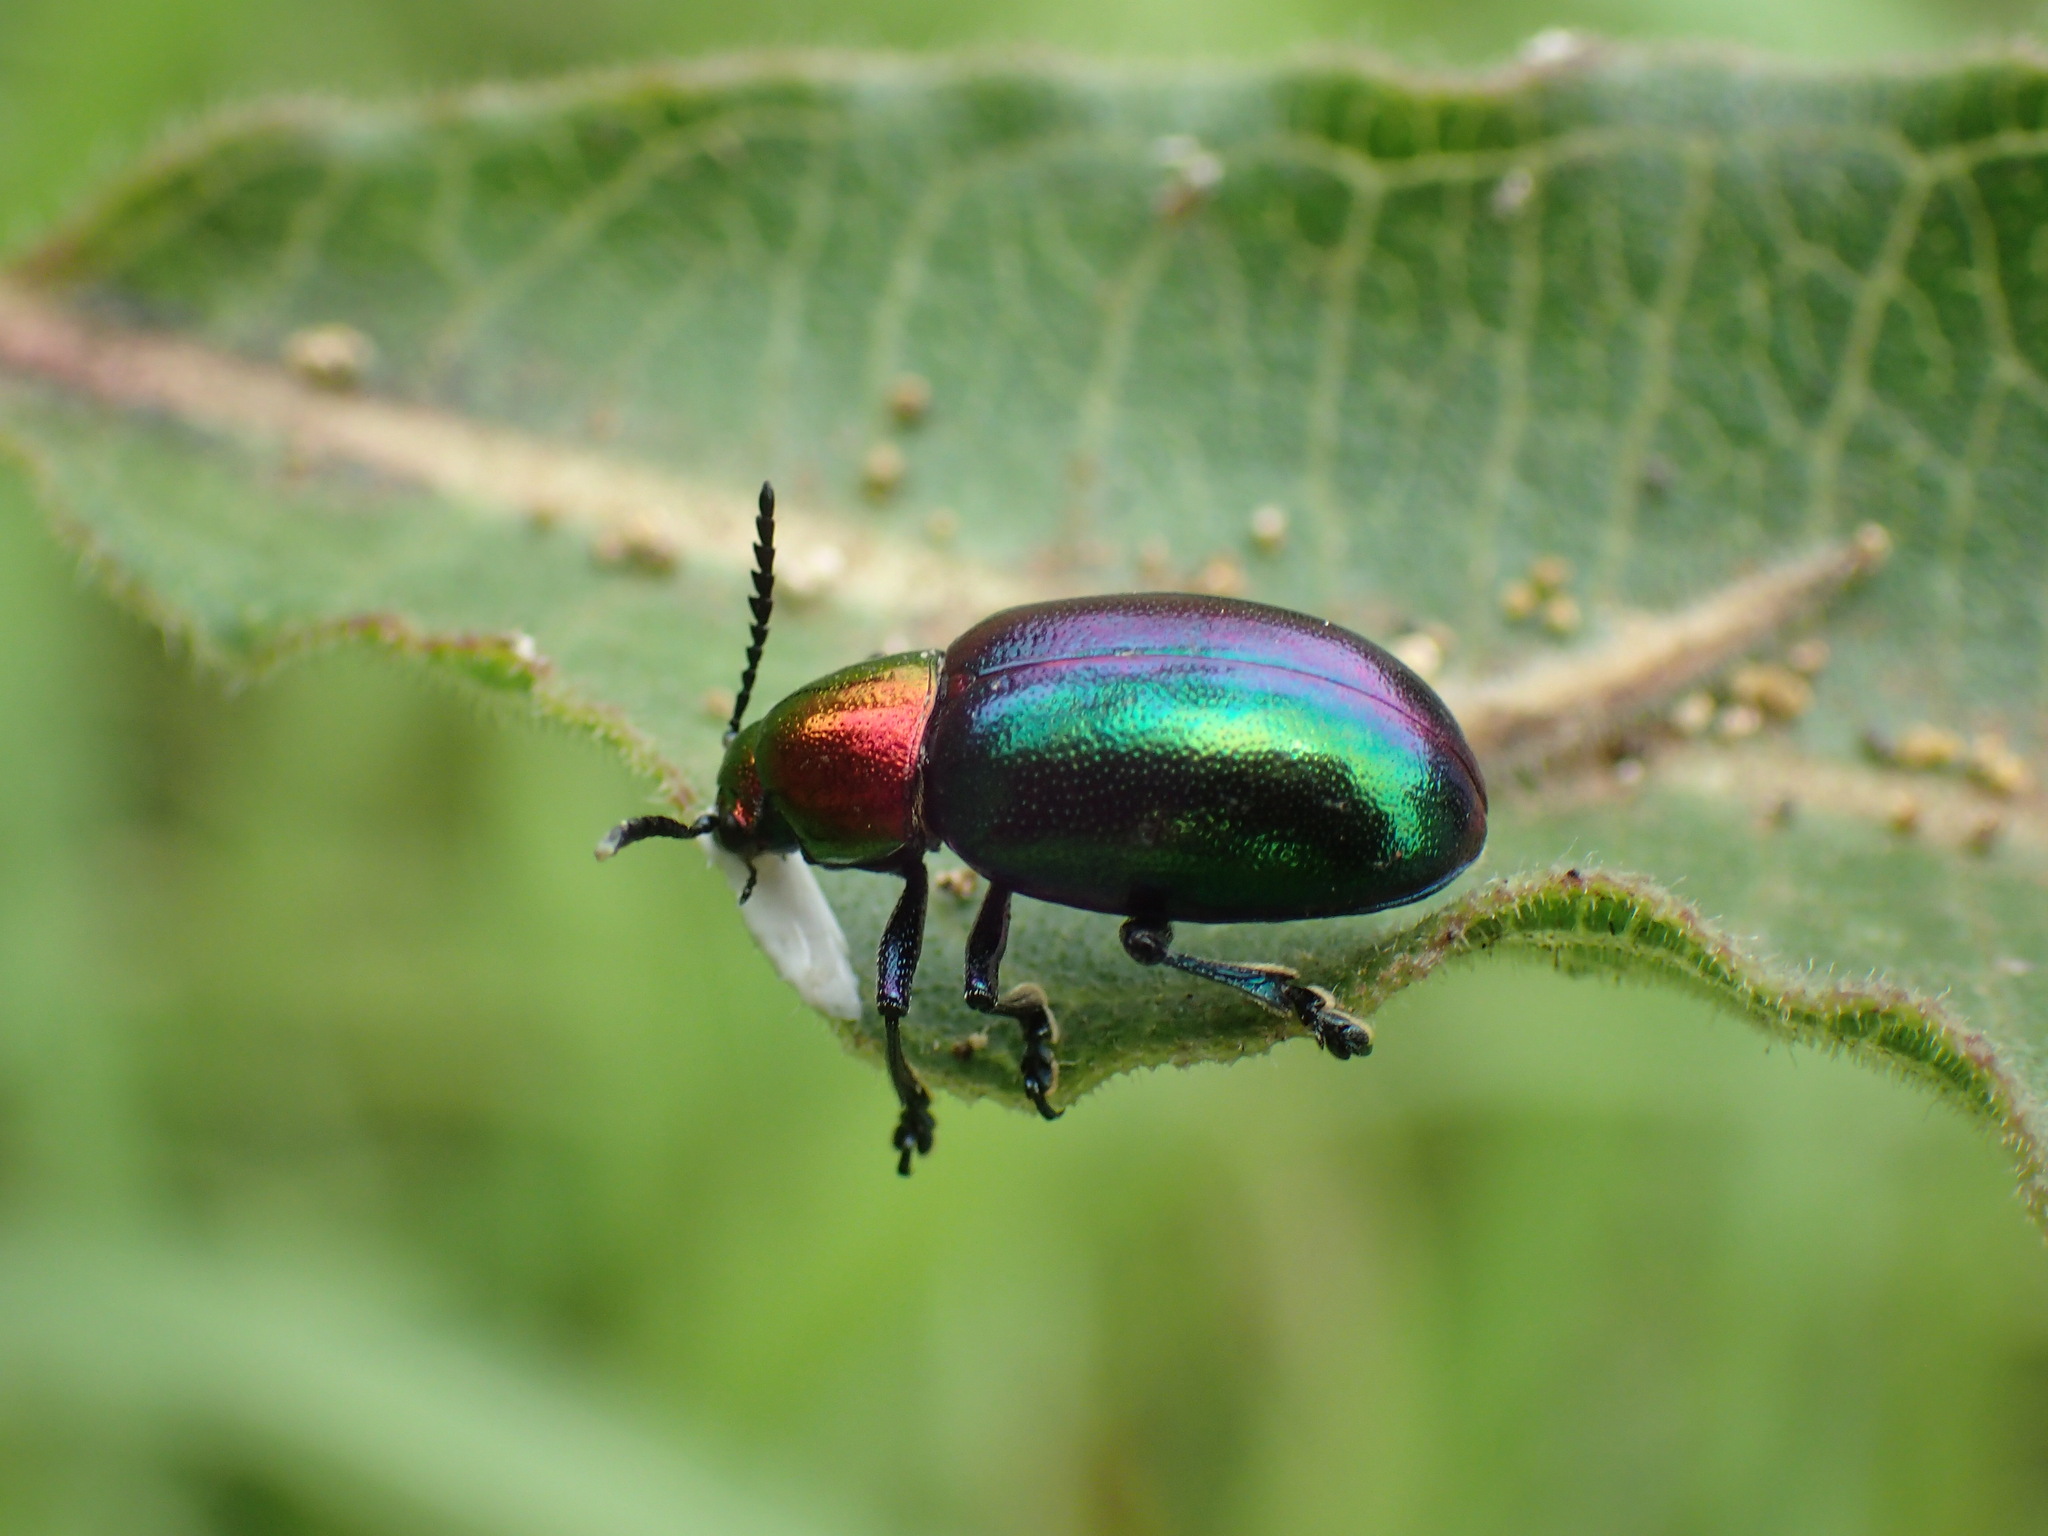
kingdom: Animalia
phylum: Arthropoda
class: Insecta
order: Coleoptera
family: Chrysomelidae
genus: Platycorynus
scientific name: Platycorynus dejeani
